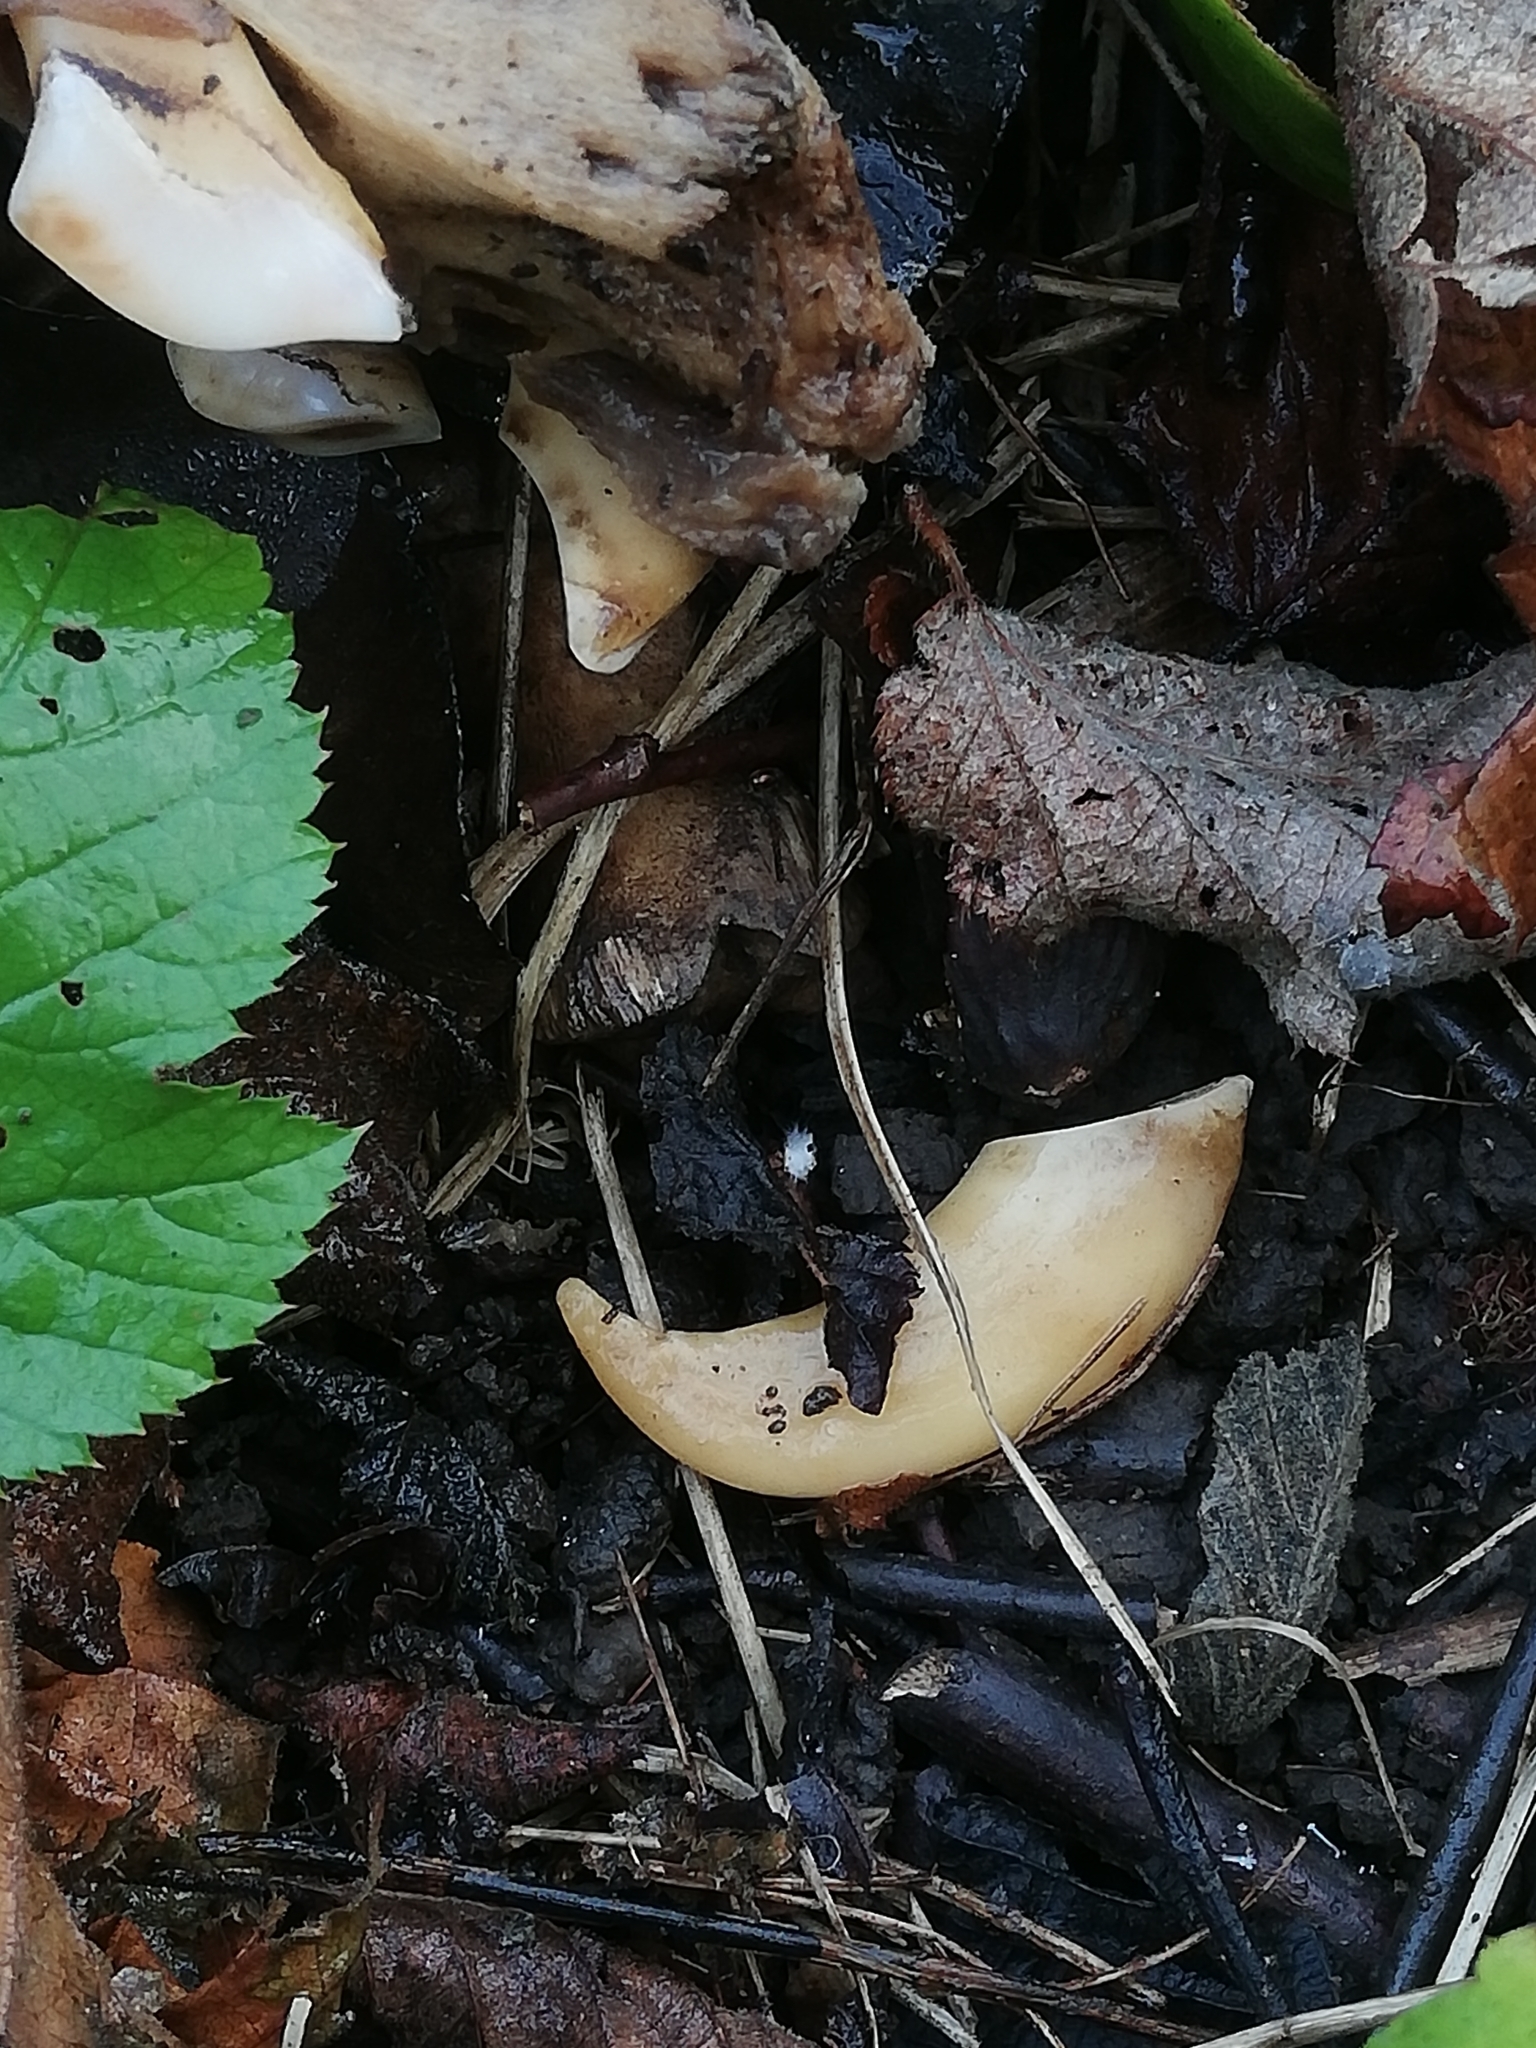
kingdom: Animalia
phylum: Chordata
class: Mammalia
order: Artiodactyla
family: Suidae
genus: Sus
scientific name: Sus scrofa
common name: Wild boar
